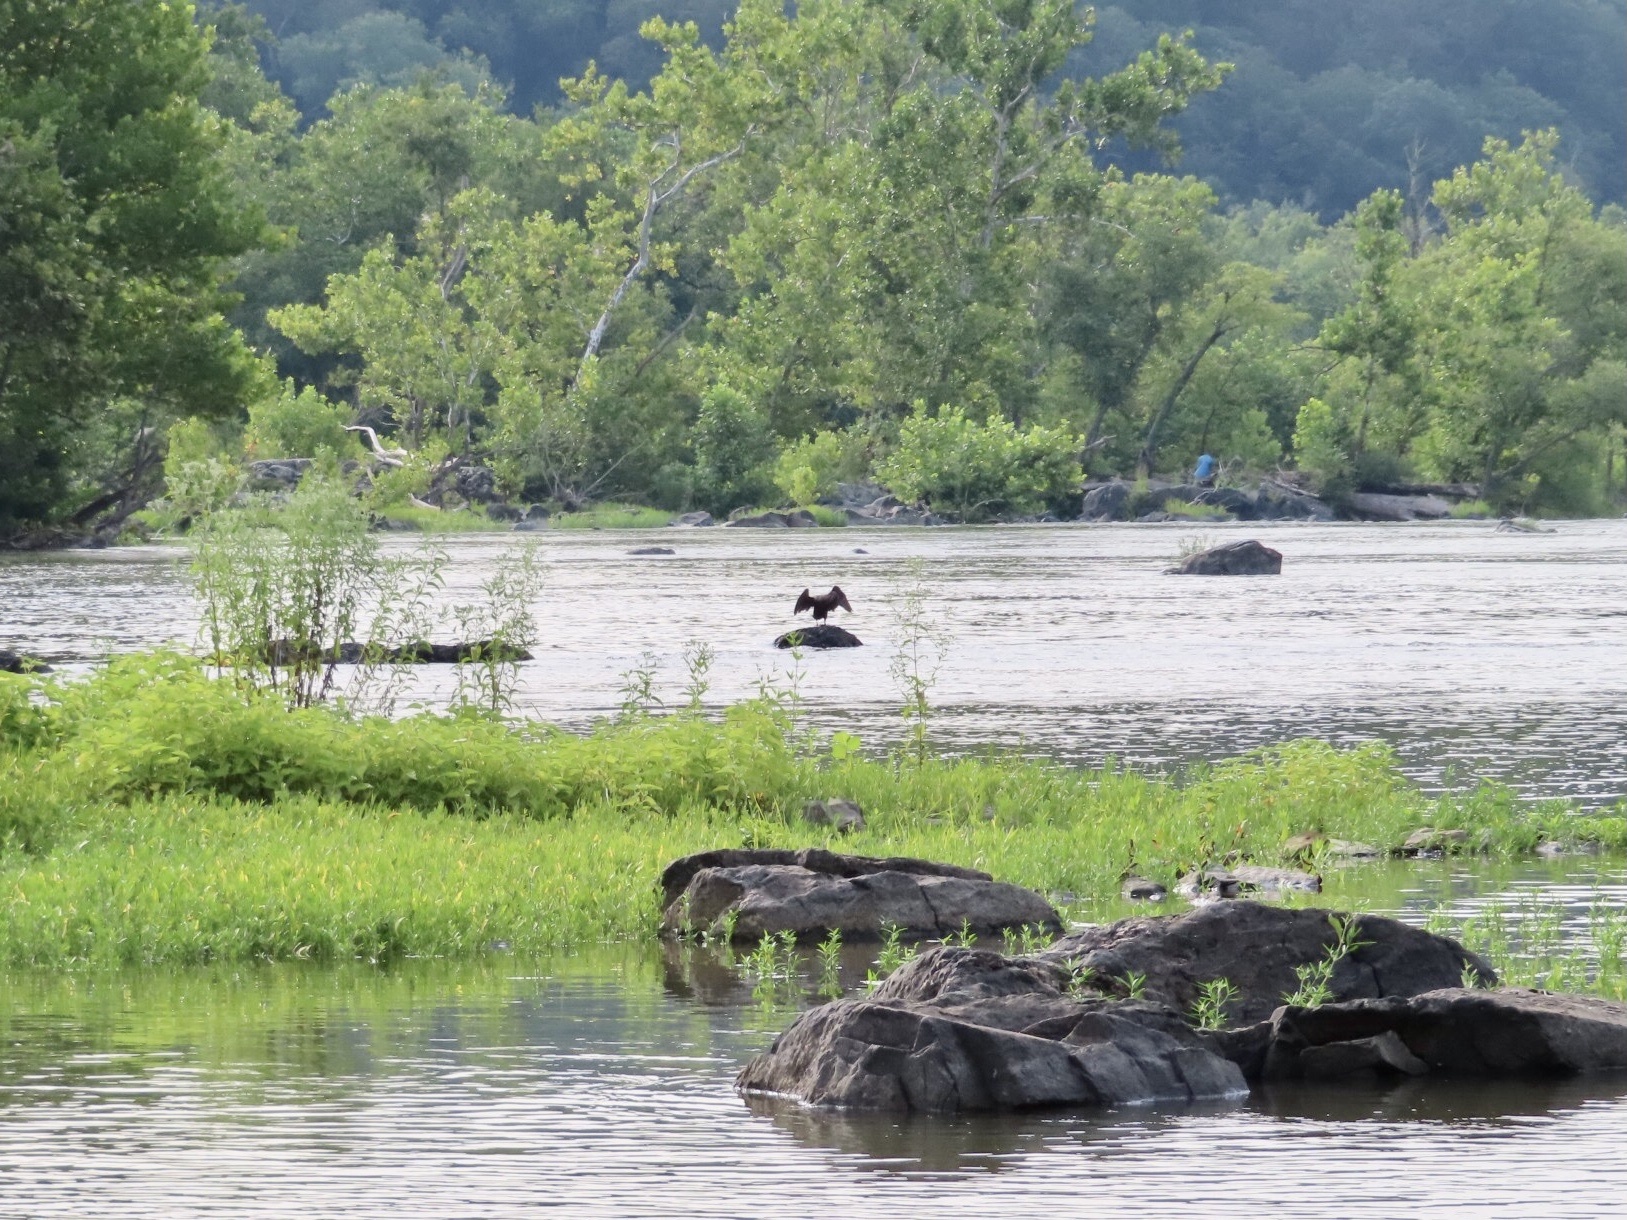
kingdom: Animalia
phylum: Chordata
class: Aves
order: Suliformes
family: Phalacrocoracidae
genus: Phalacrocorax
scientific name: Phalacrocorax auritus
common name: Double-crested cormorant
